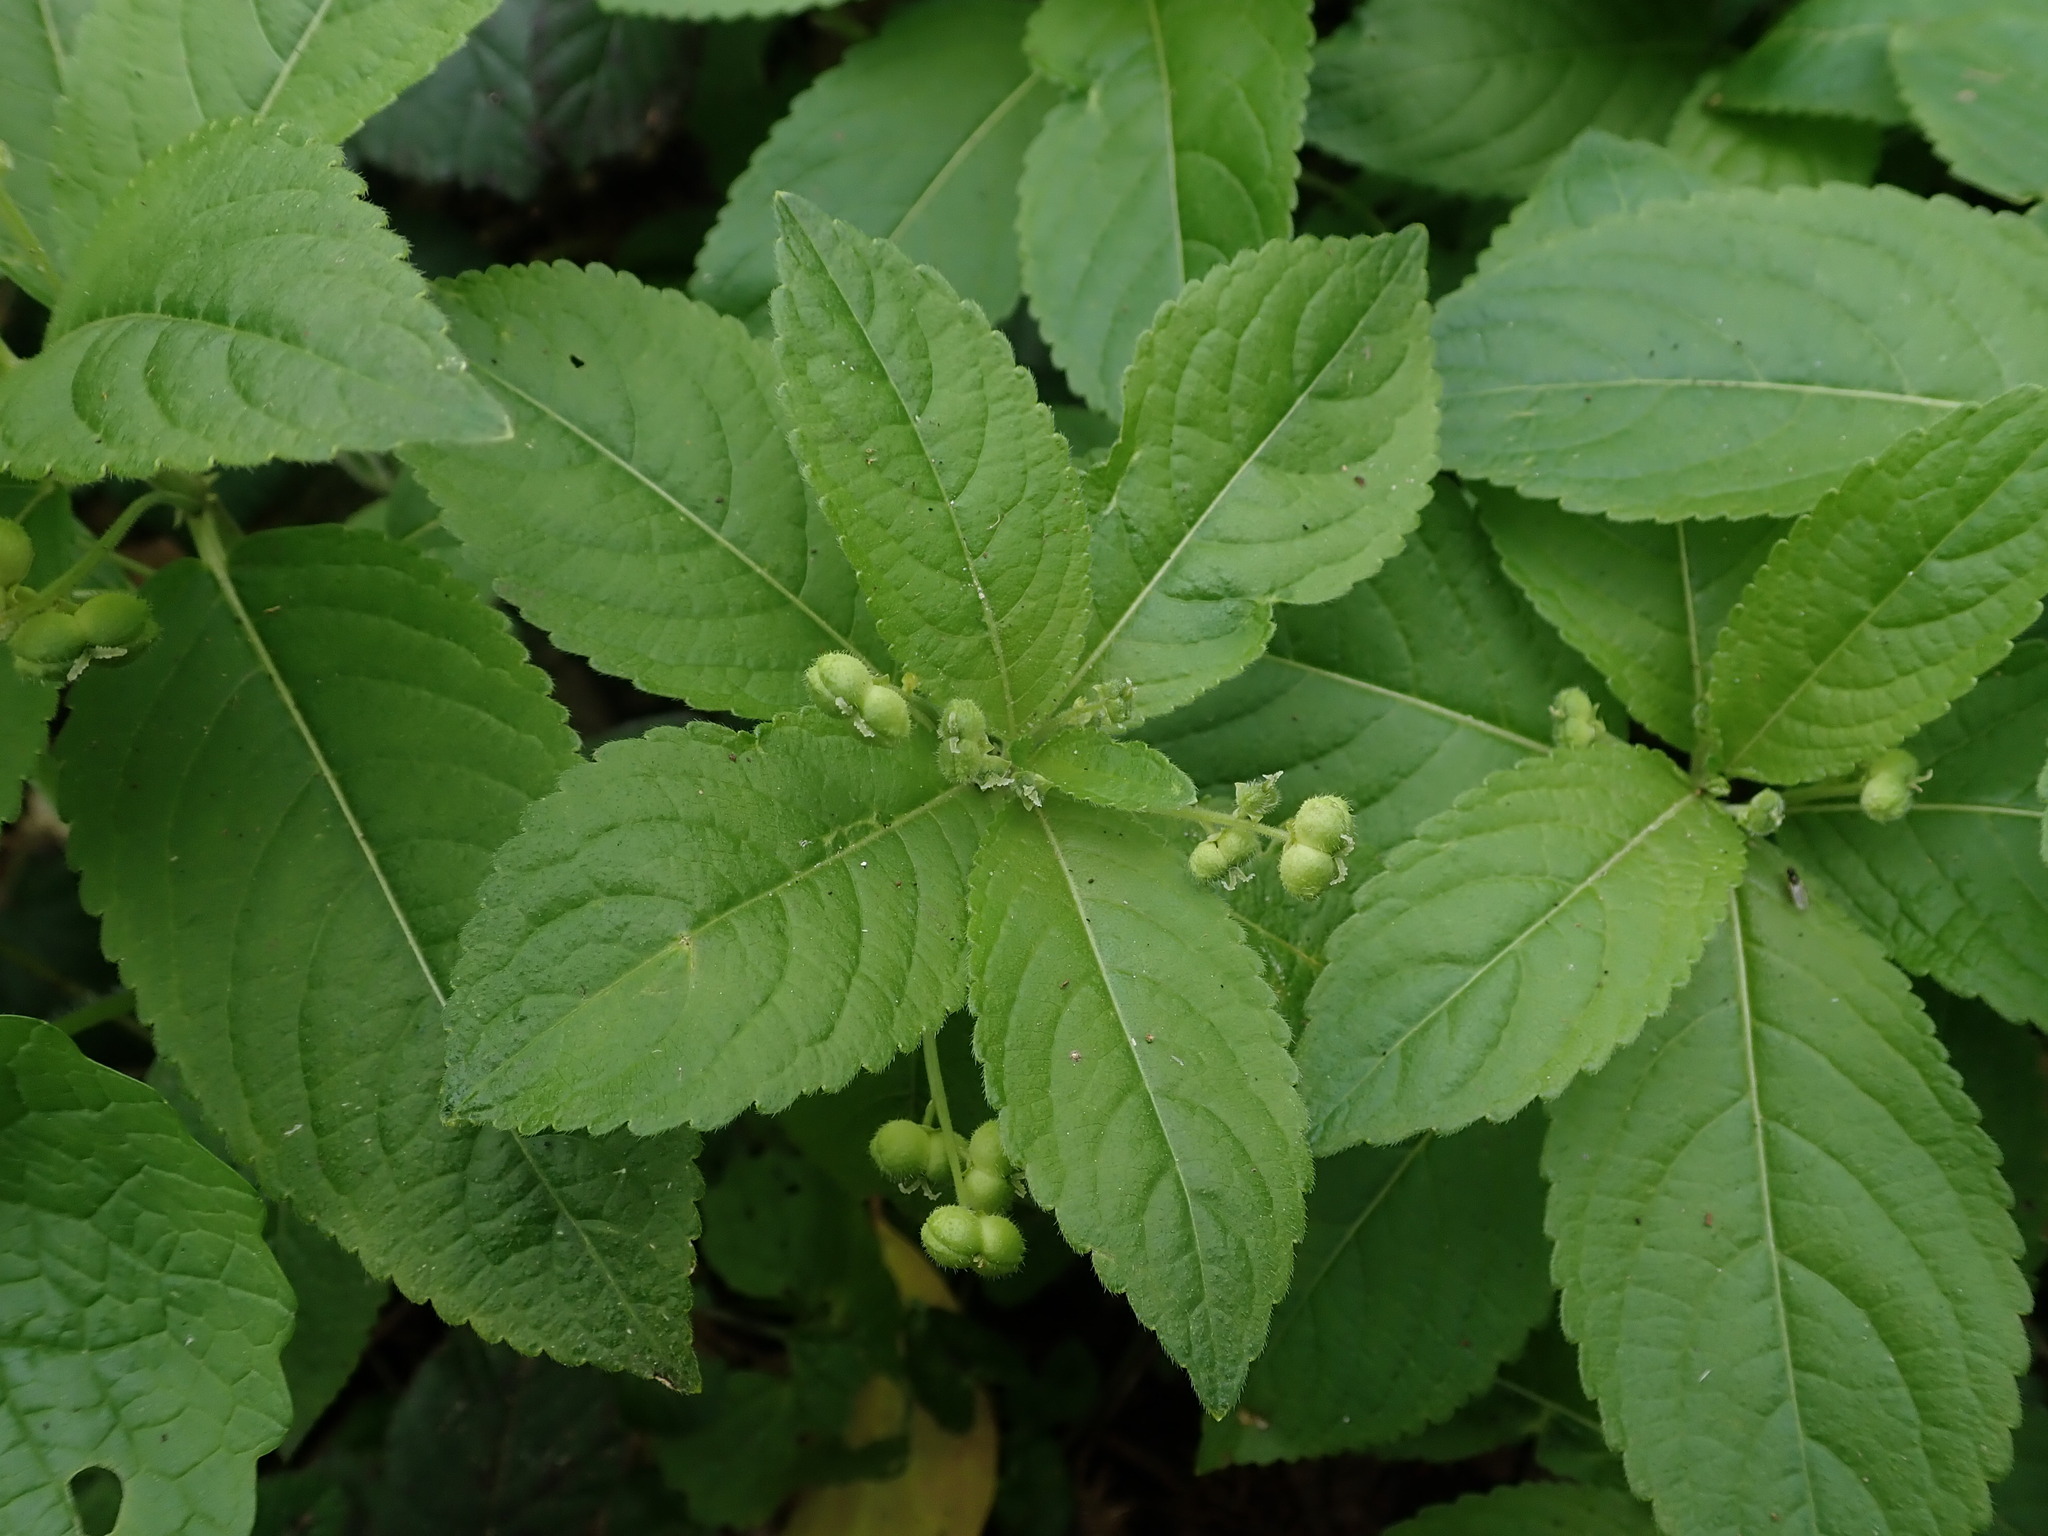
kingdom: Plantae
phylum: Tracheophyta
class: Magnoliopsida
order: Malpighiales
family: Euphorbiaceae
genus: Mercurialis
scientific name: Mercurialis perennis
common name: Dog mercury
